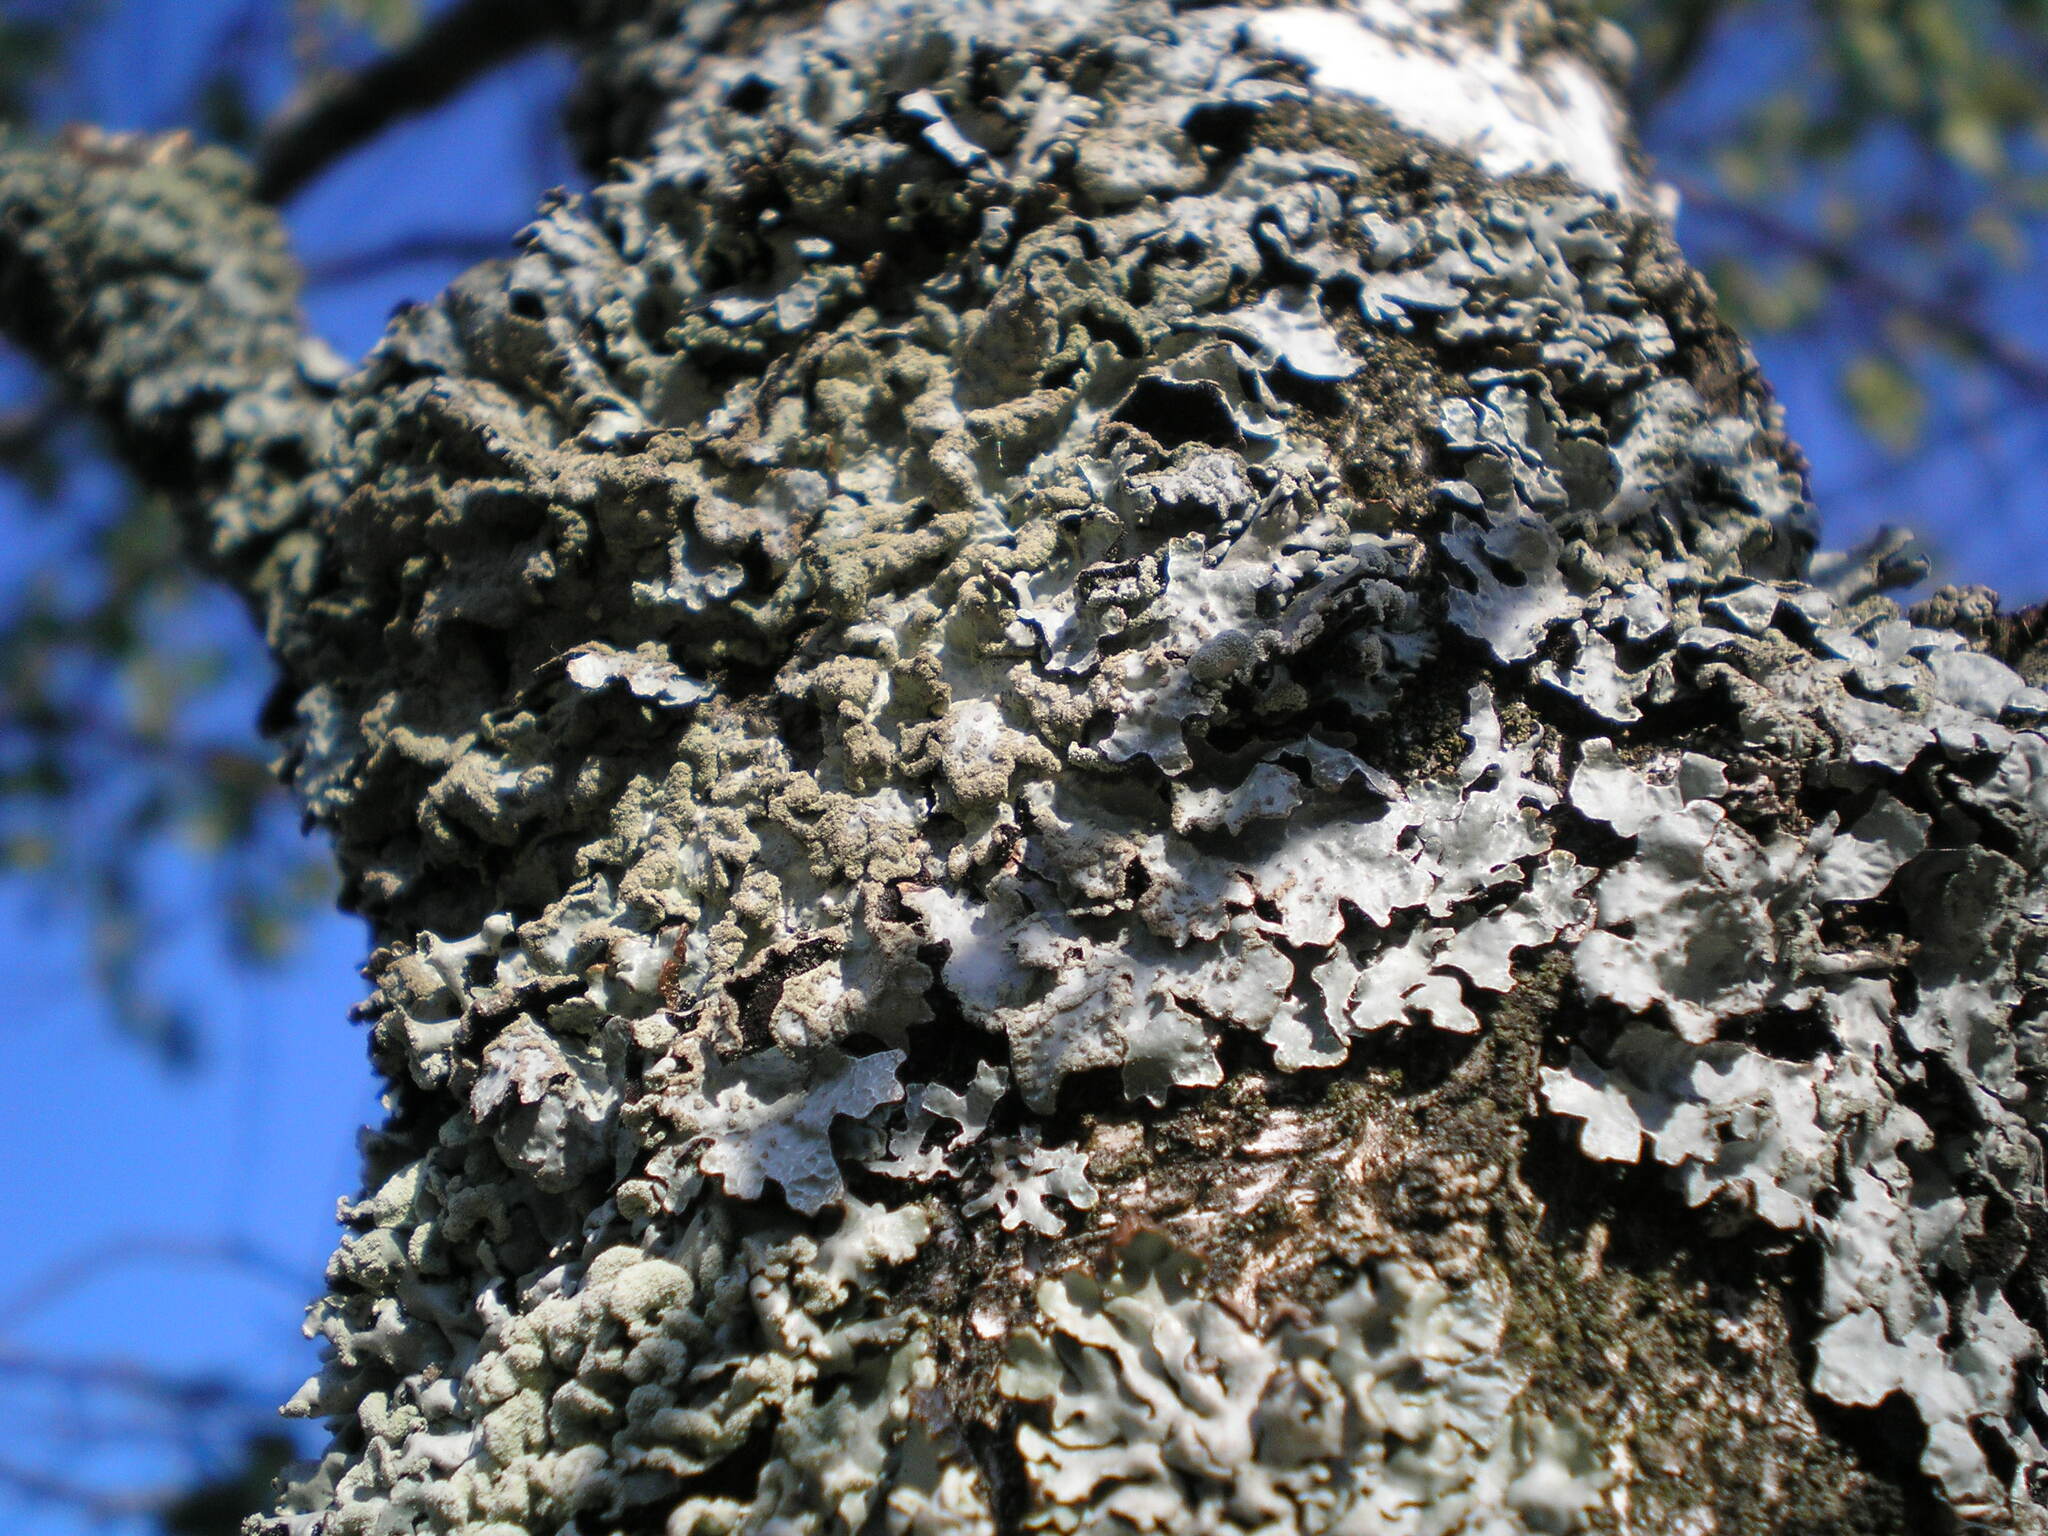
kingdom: Fungi
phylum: Ascomycota
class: Lecanoromycetes
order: Lecanorales
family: Parmeliaceae
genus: Parmelia
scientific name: Parmelia sulcata
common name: Netted shield lichen
